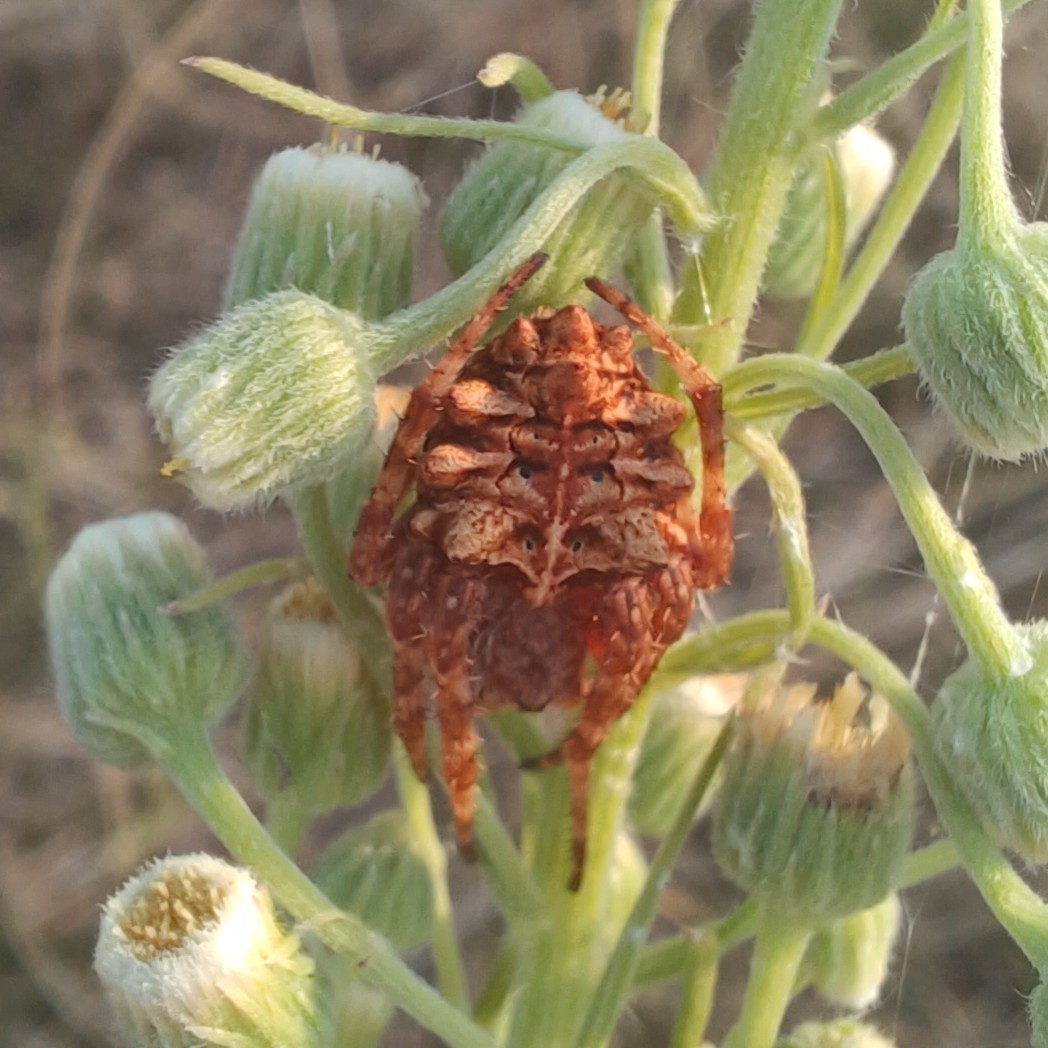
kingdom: Animalia
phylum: Arthropoda
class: Arachnida
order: Araneae
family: Araneidae
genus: Parawixia
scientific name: Parawixia audax
